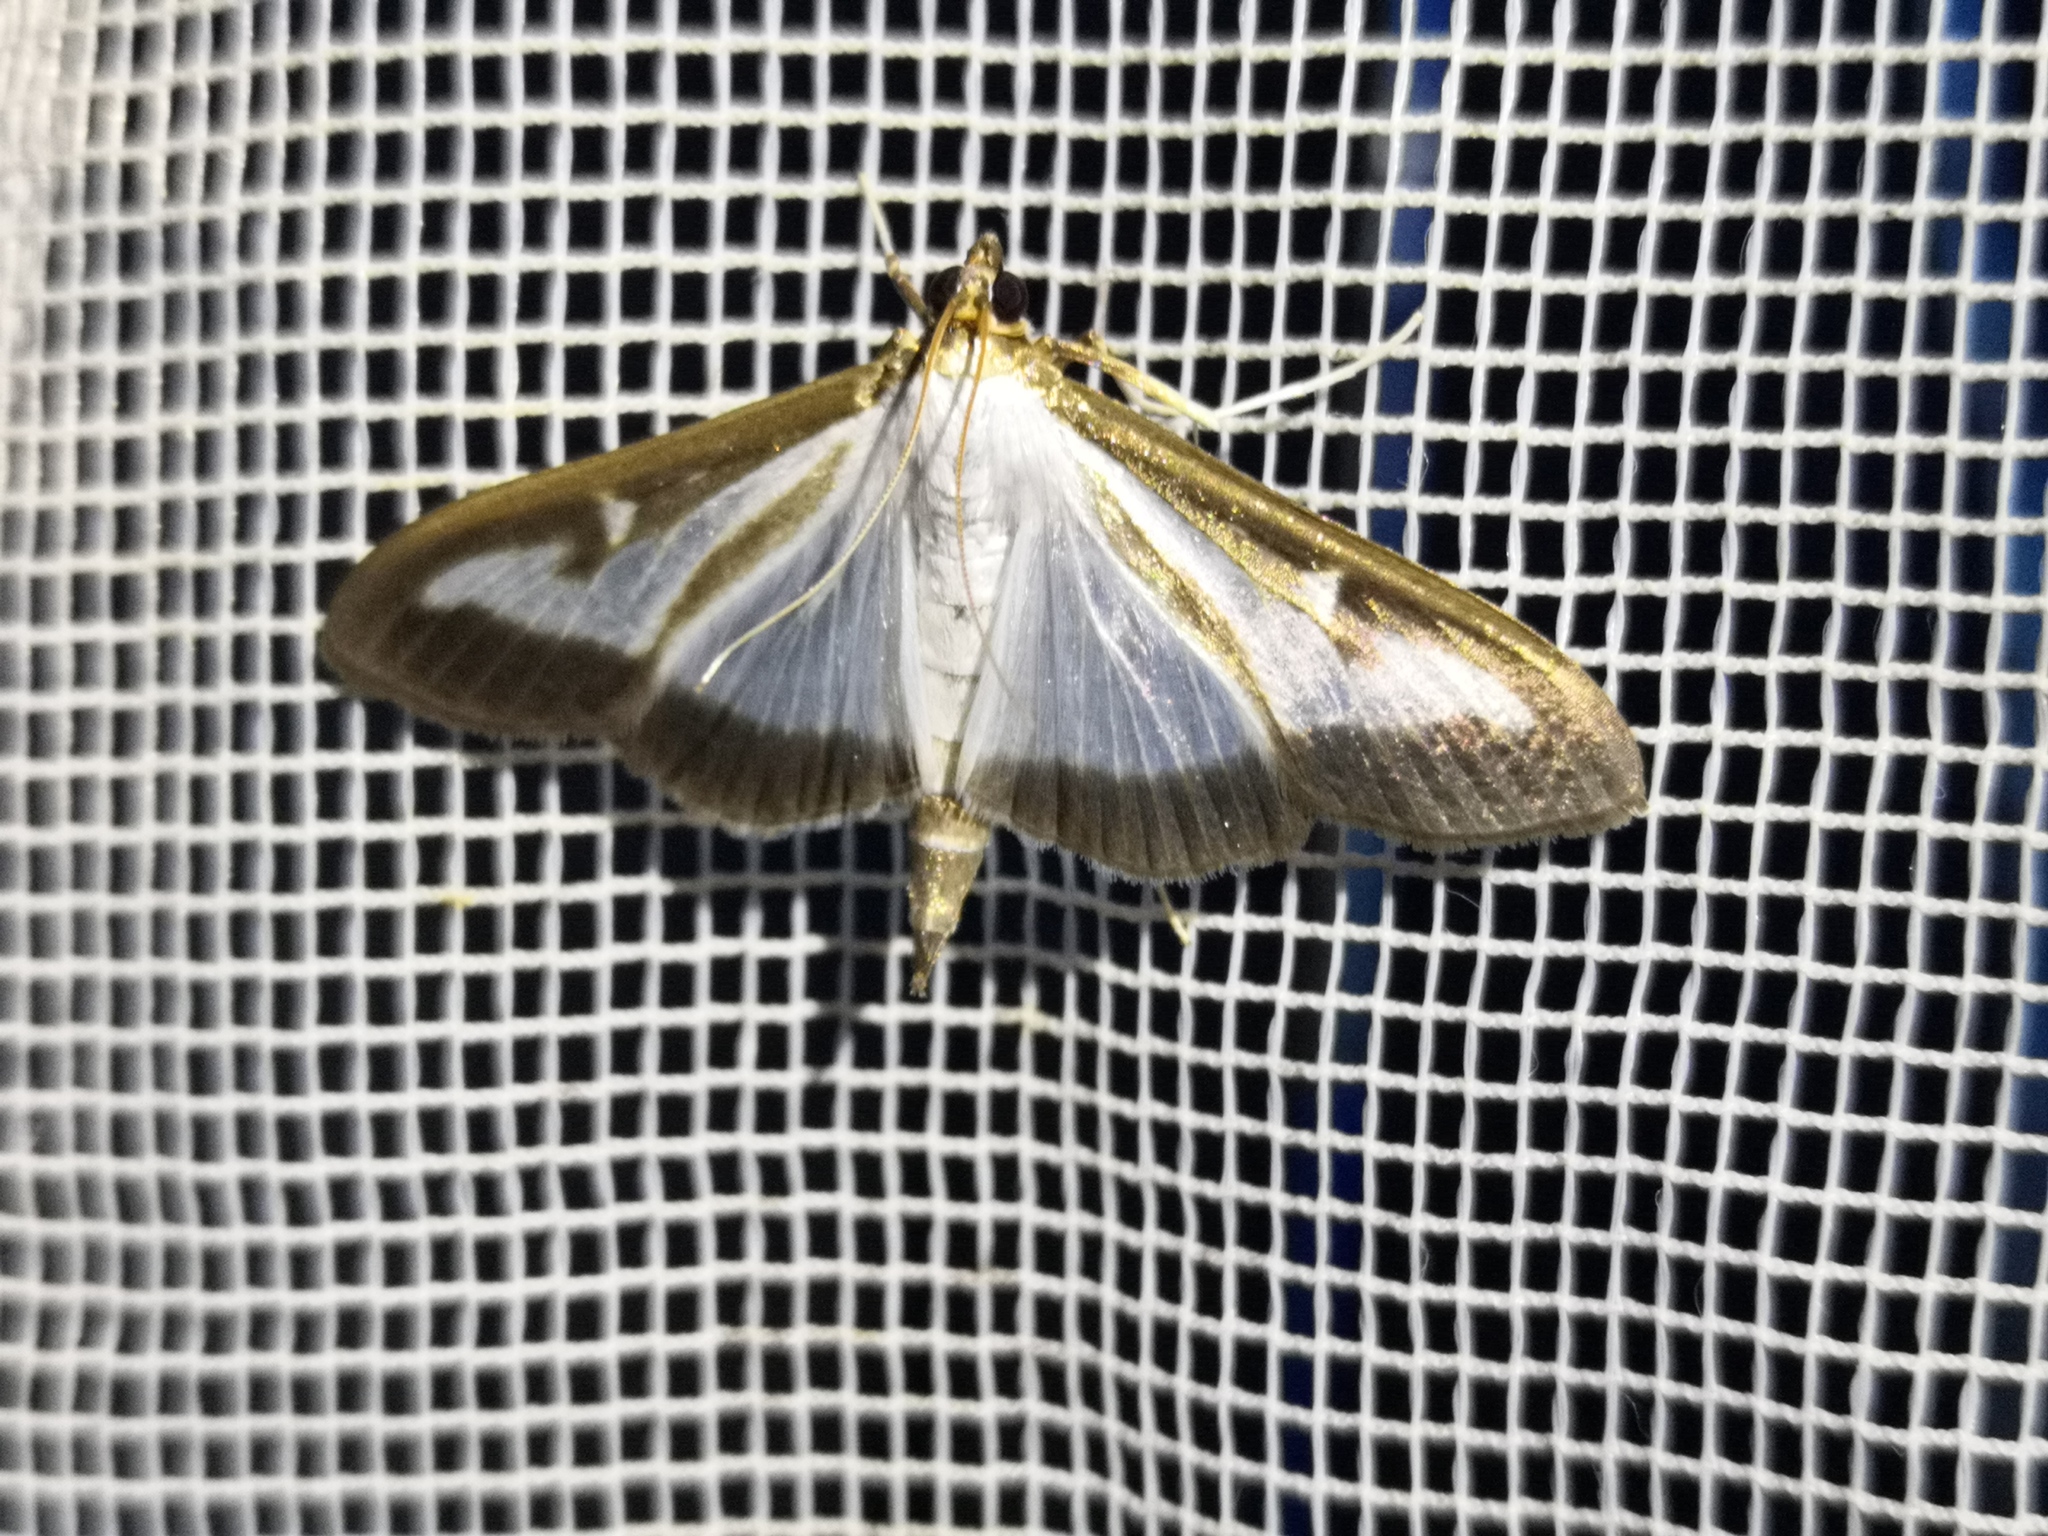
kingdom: Animalia
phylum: Arthropoda
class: Insecta
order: Lepidoptera
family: Crambidae
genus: Cydalima
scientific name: Cydalima perspectalis
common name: Box tree moth
